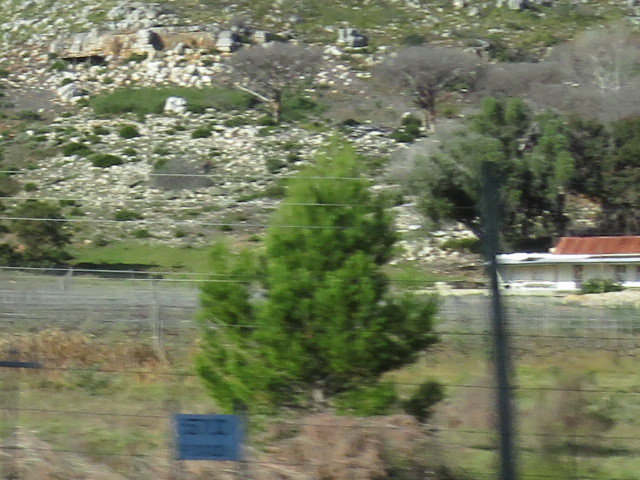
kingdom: Plantae
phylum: Tracheophyta
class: Pinopsida
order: Pinales
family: Pinaceae
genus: Pinus
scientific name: Pinus halepensis
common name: Aleppo pine
